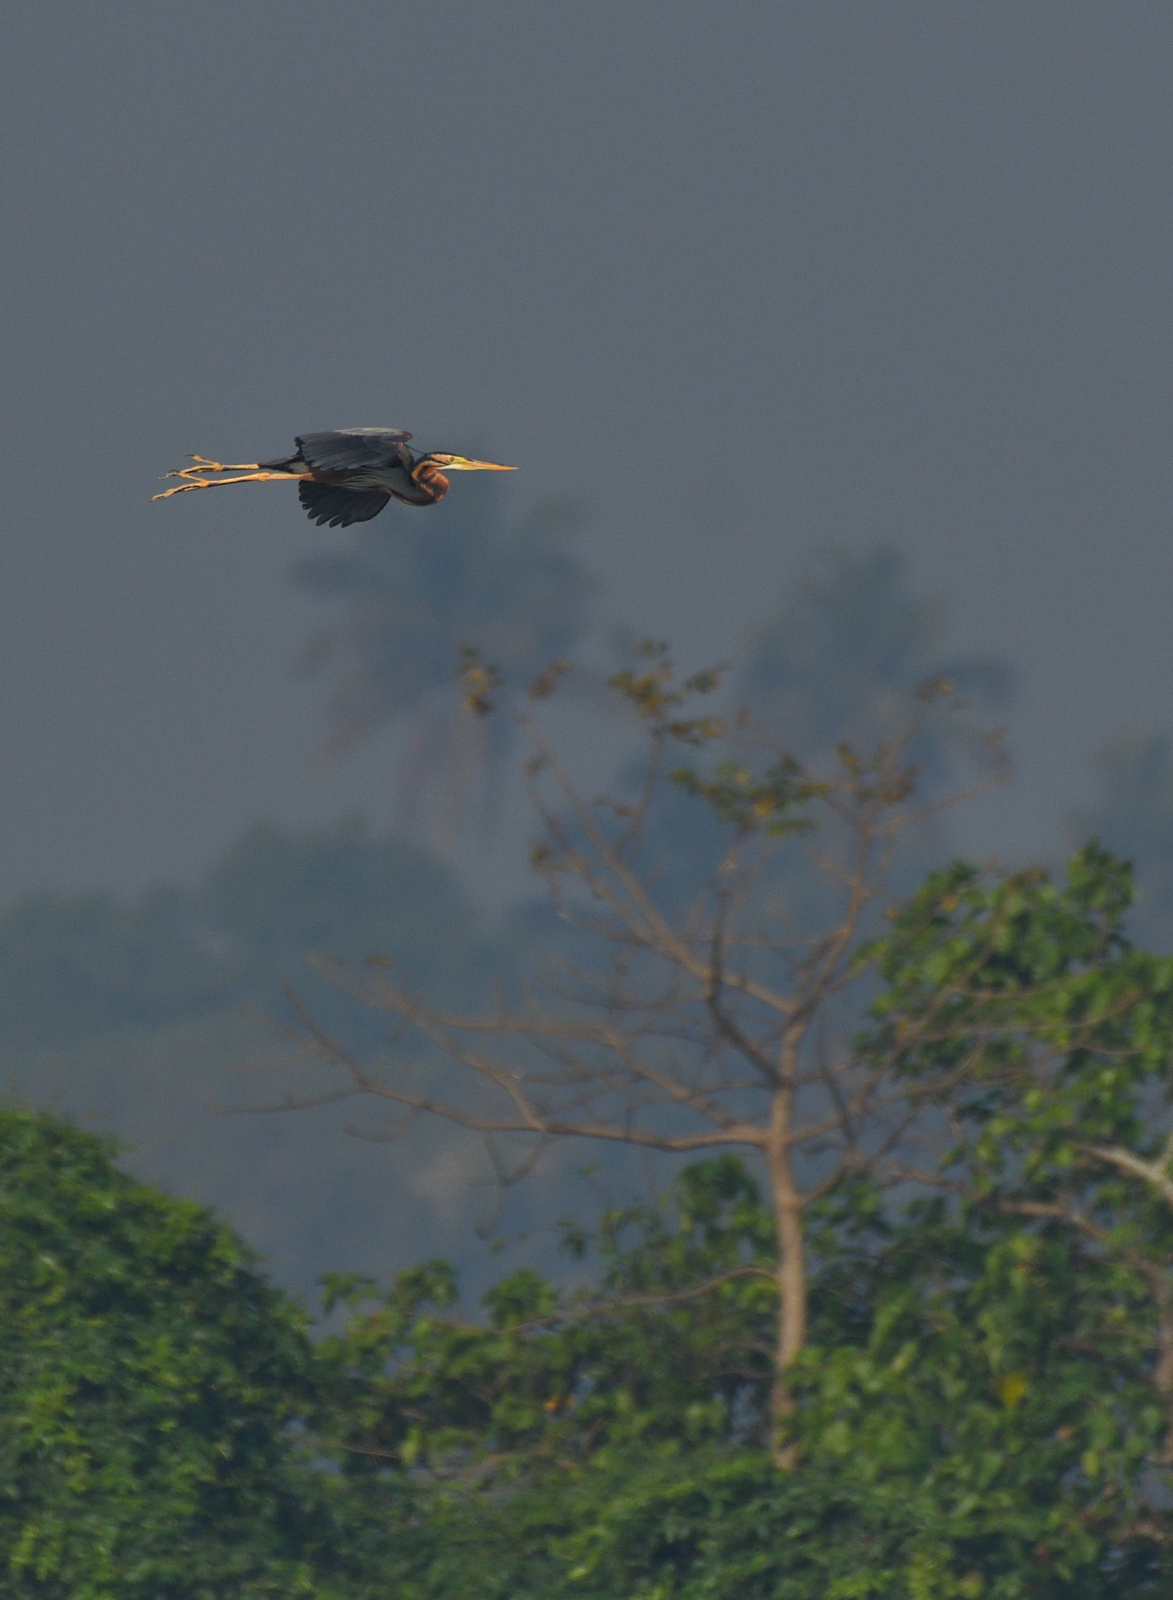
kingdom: Animalia
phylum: Chordata
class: Aves
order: Pelecaniformes
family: Ardeidae
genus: Ardea
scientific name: Ardea purpurea
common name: Purple heron
